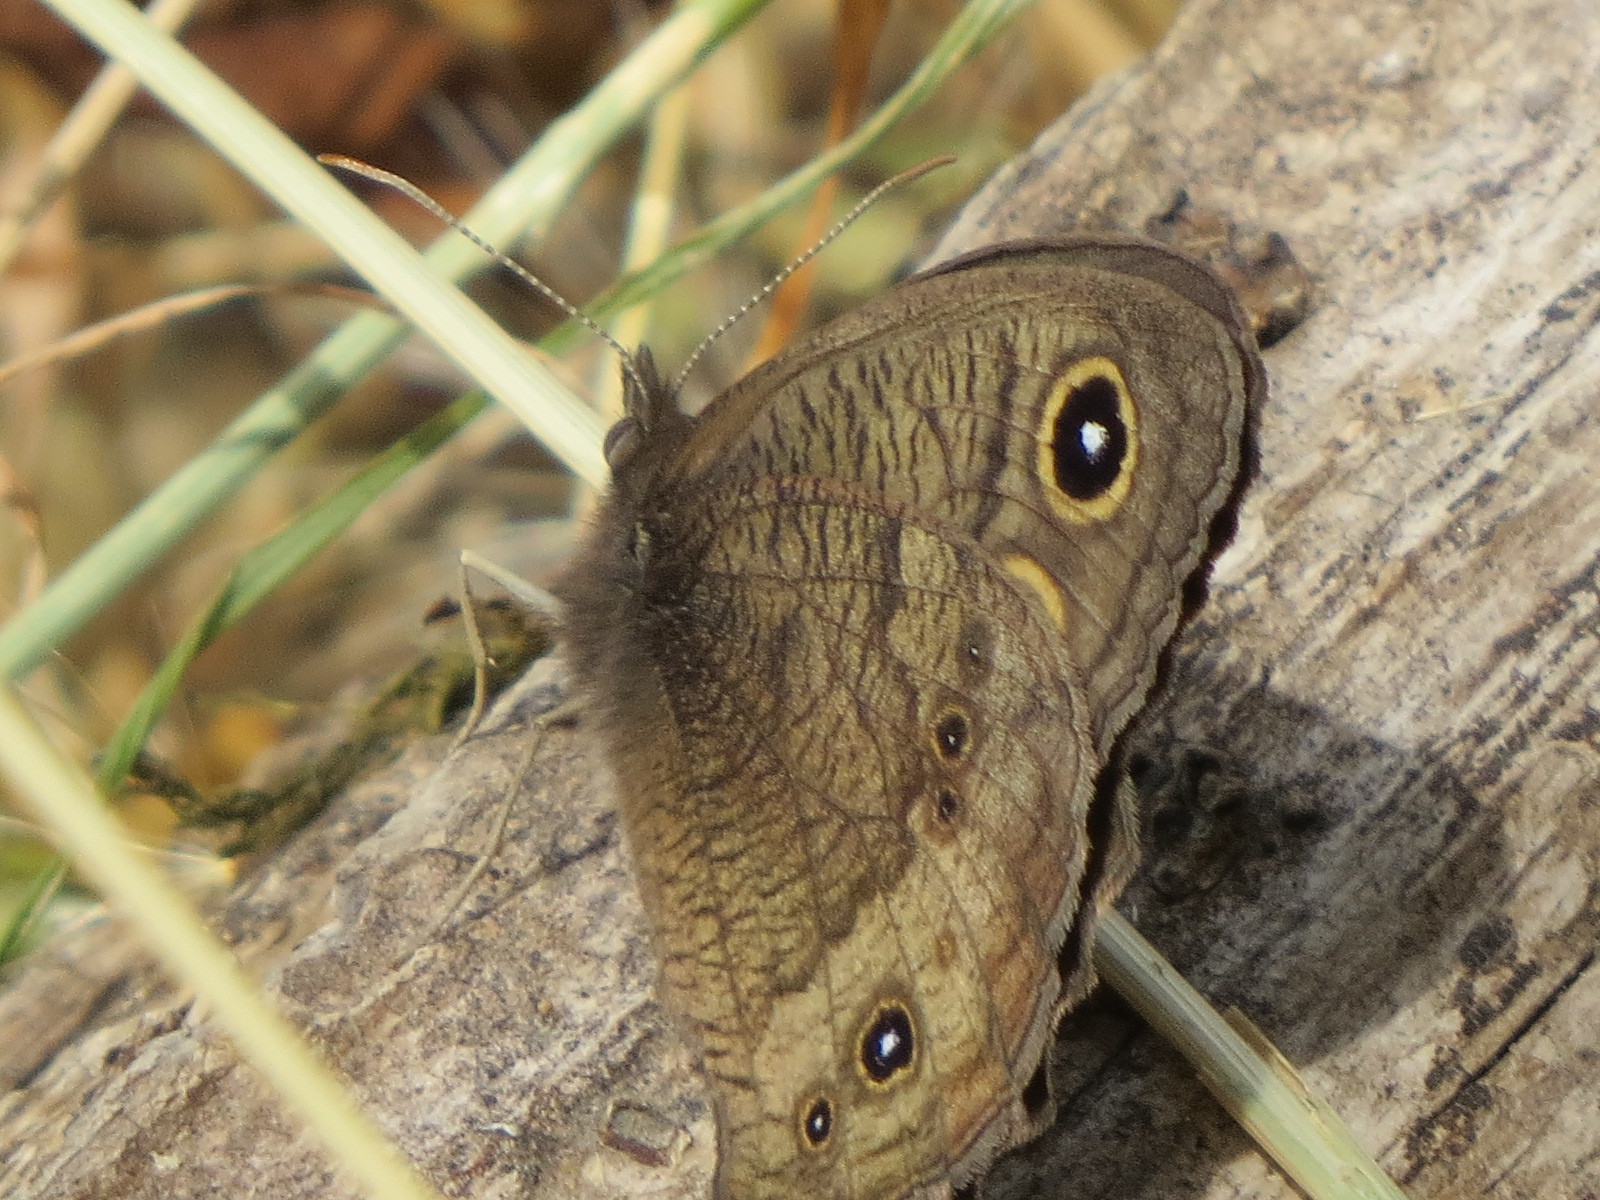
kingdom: Animalia
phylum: Arthropoda
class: Insecta
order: Lepidoptera
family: Nymphalidae
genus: Cercyonis
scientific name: Cercyonis pegala
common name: Common wood-nymph
